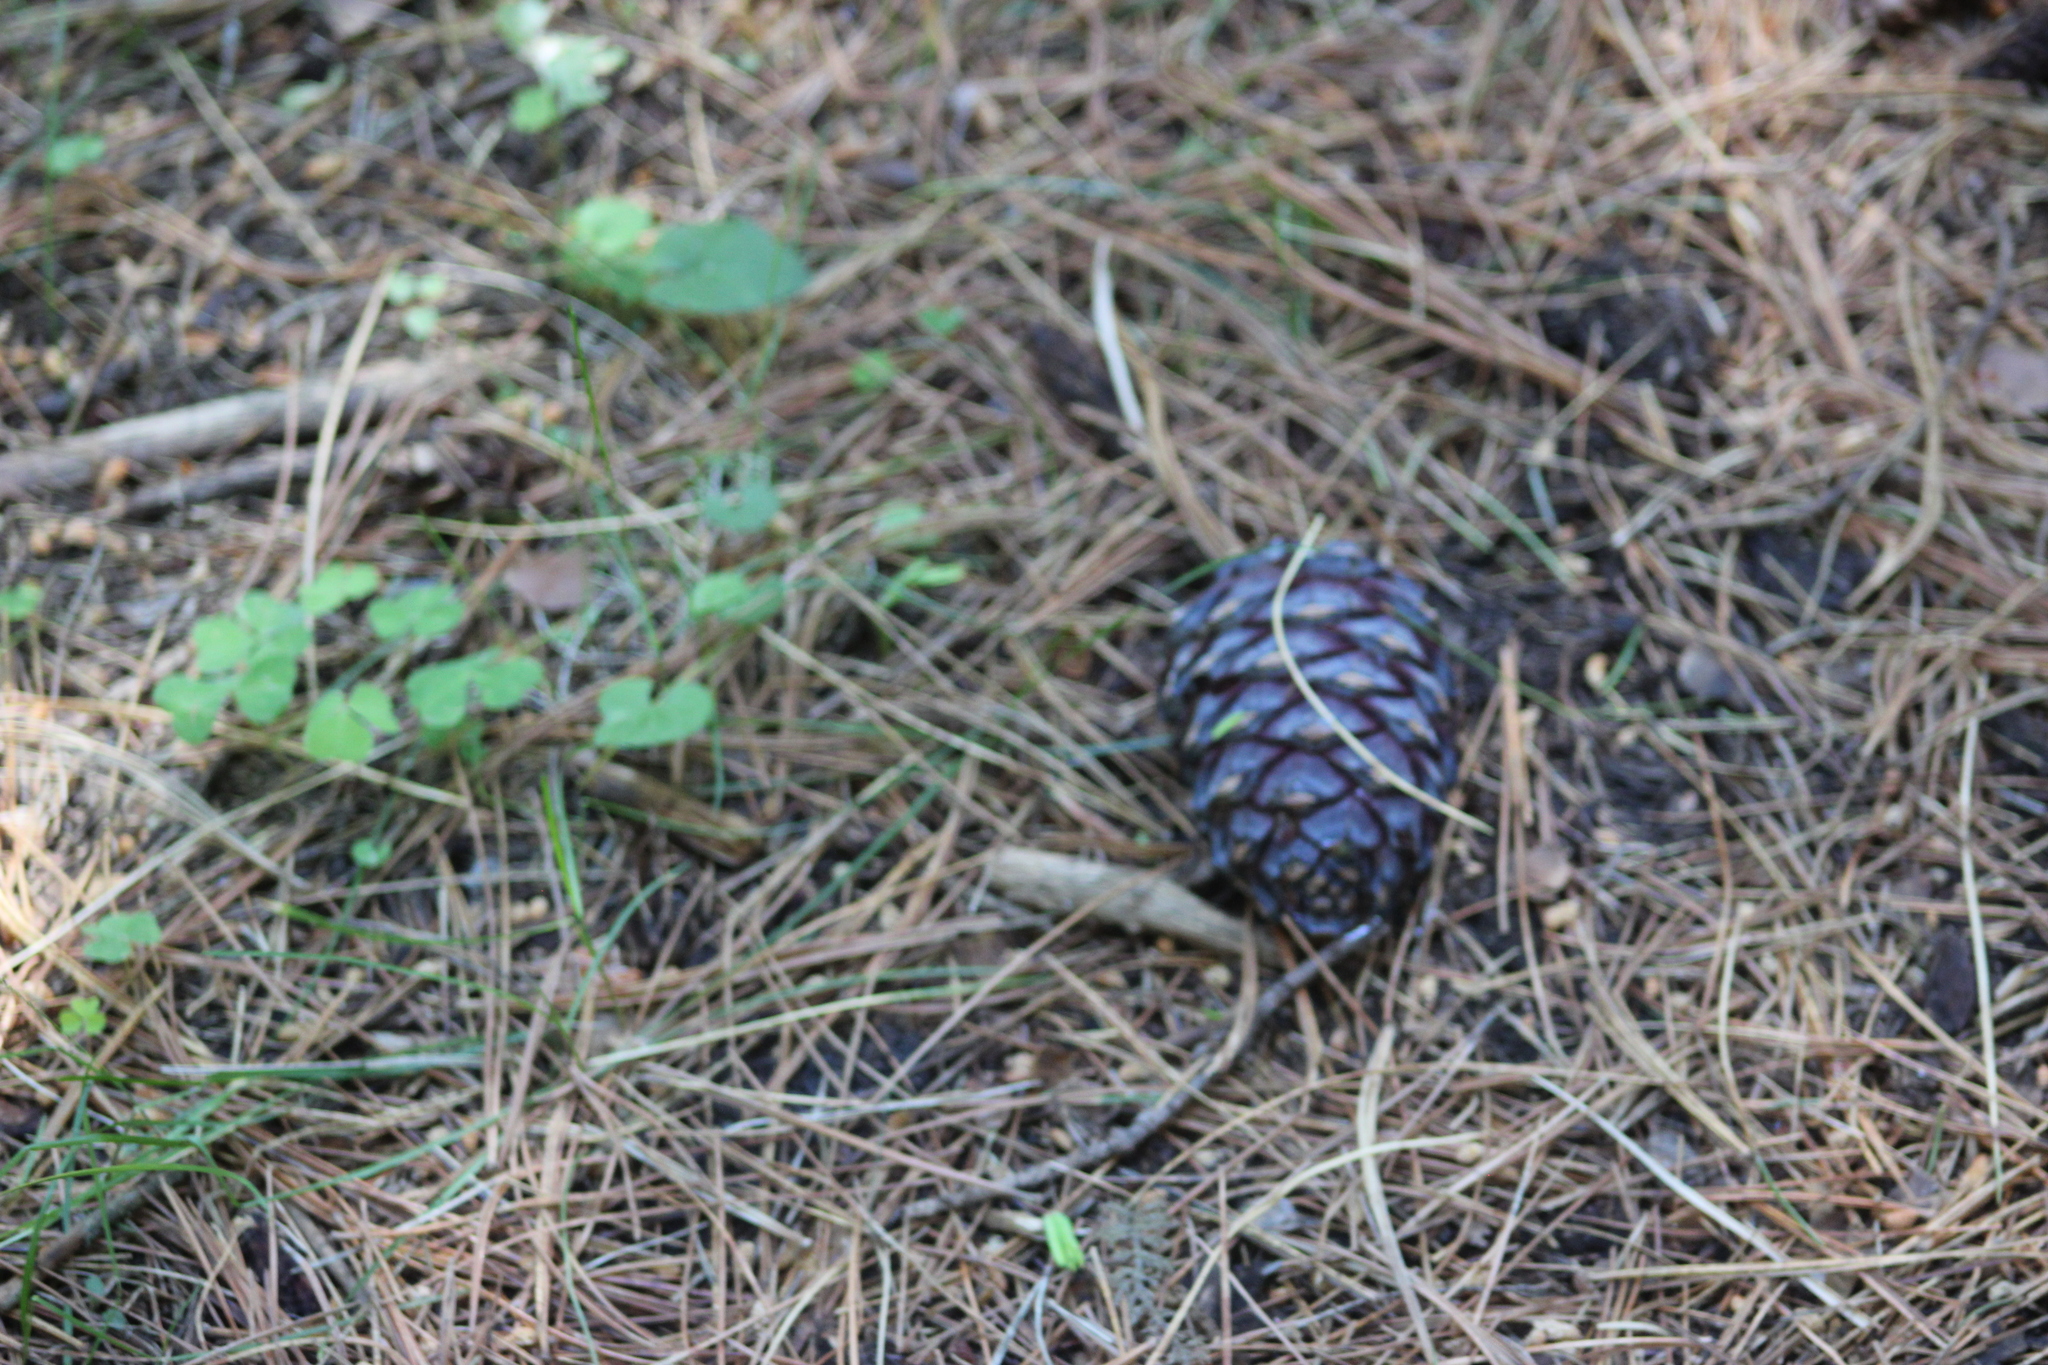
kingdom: Plantae
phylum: Tracheophyta
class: Pinopsida
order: Pinales
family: Pinaceae
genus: Pinus
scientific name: Pinus sibirica
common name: Siberian pine
